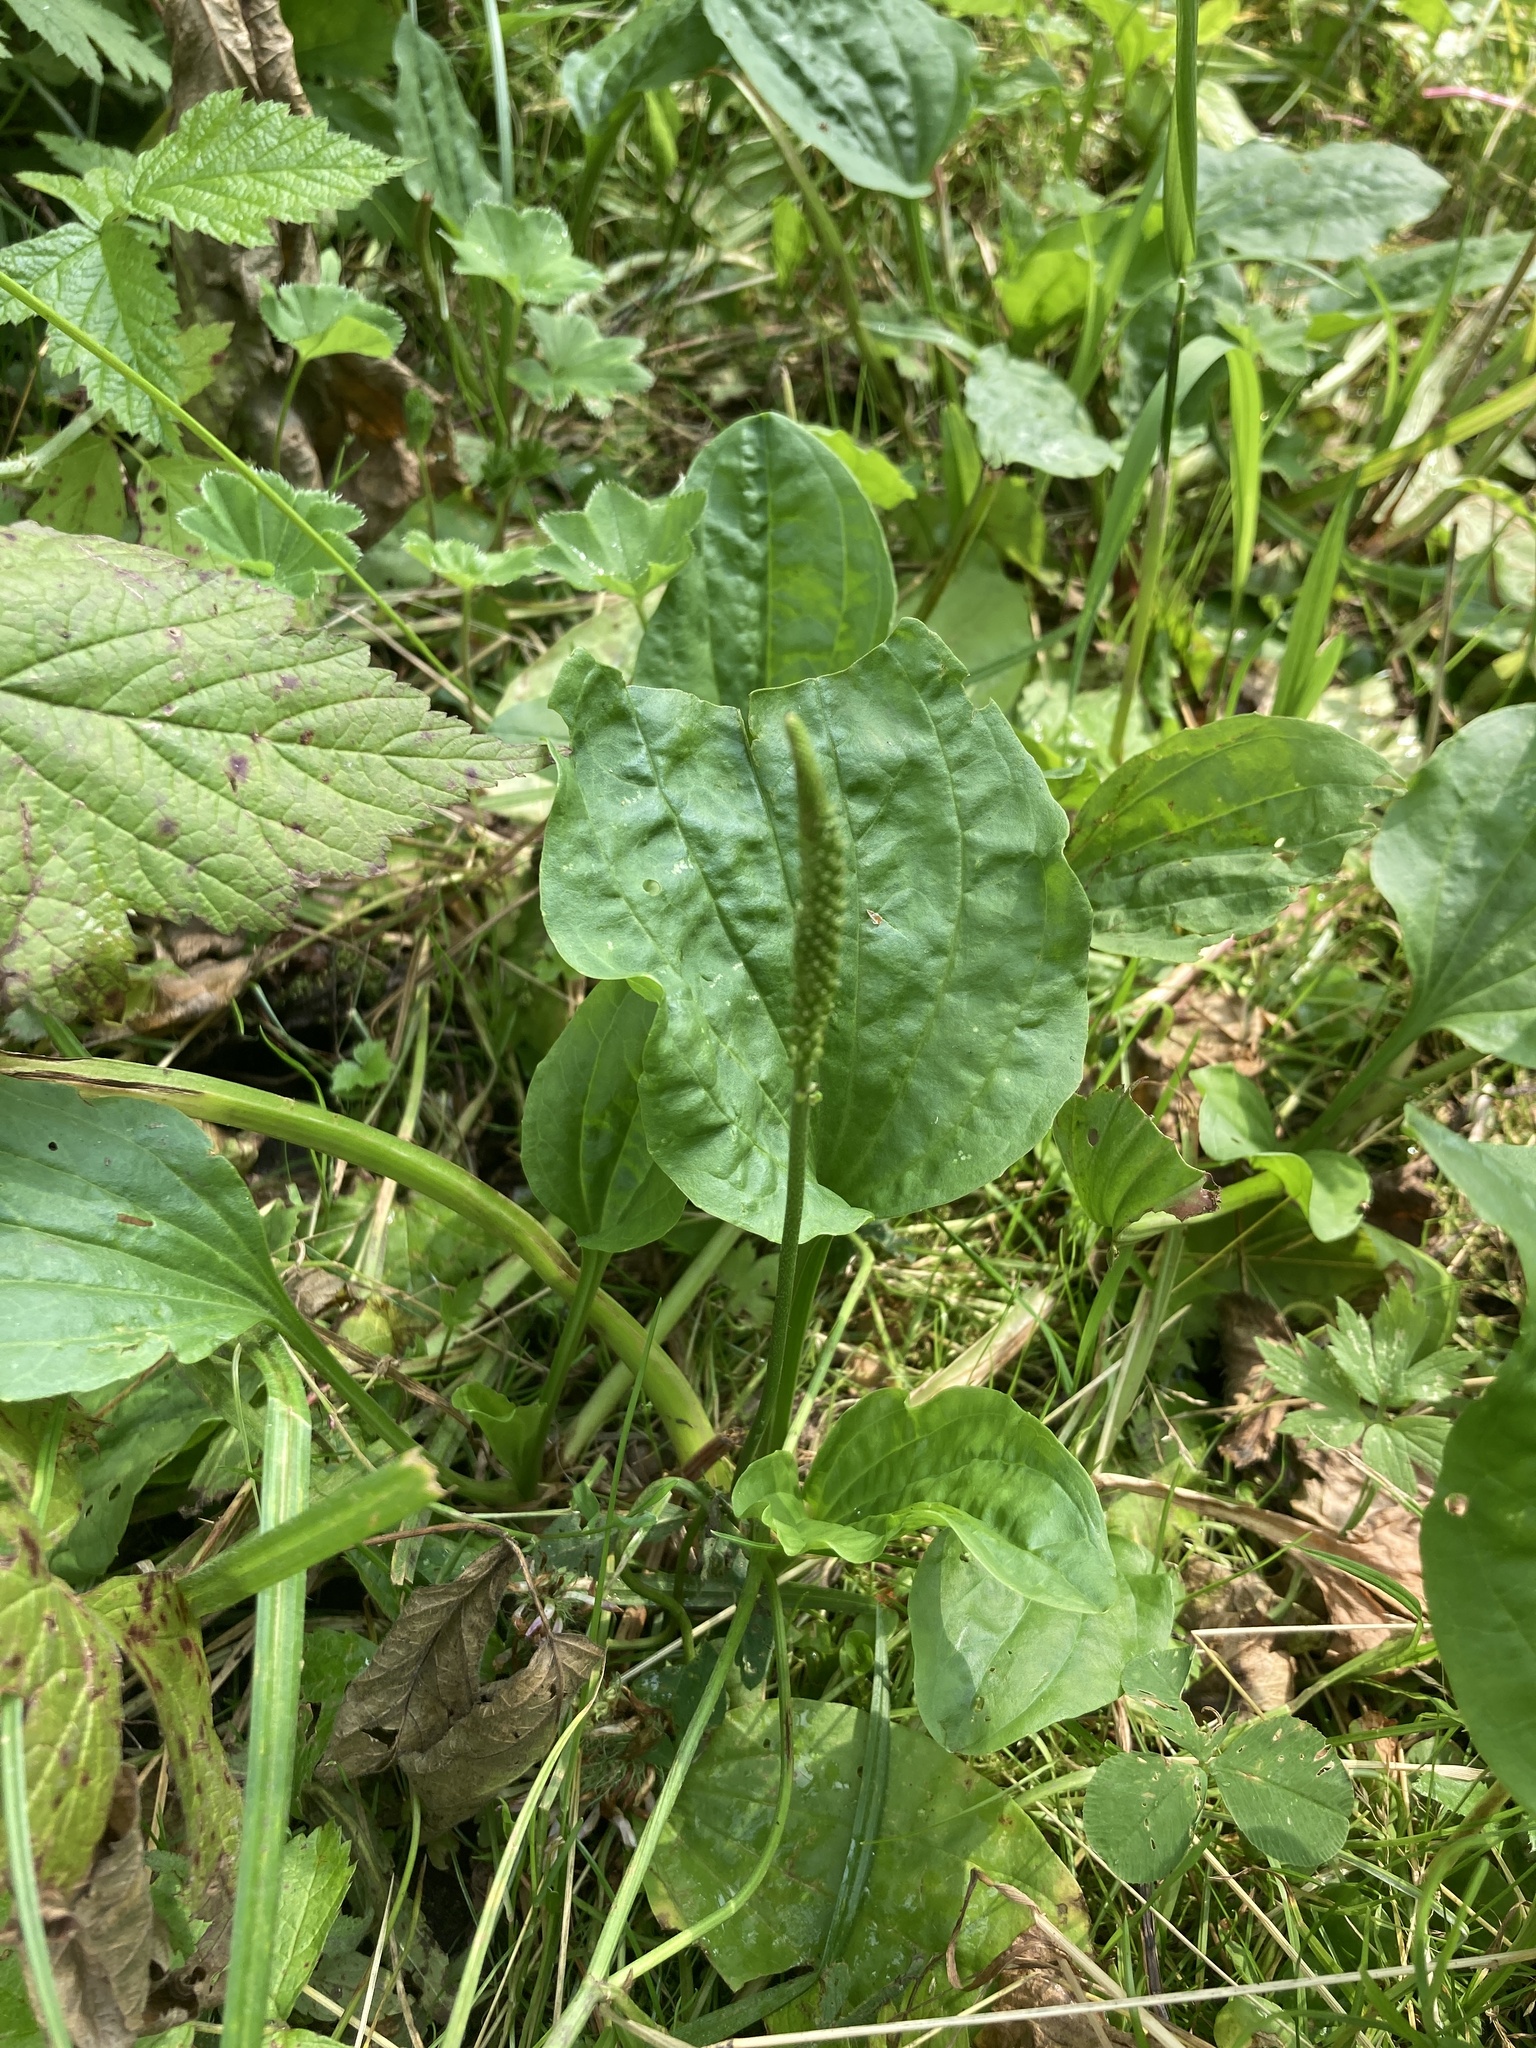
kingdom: Plantae
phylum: Tracheophyta
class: Magnoliopsida
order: Lamiales
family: Plantaginaceae
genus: Plantago
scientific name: Plantago major
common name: Common plantain
